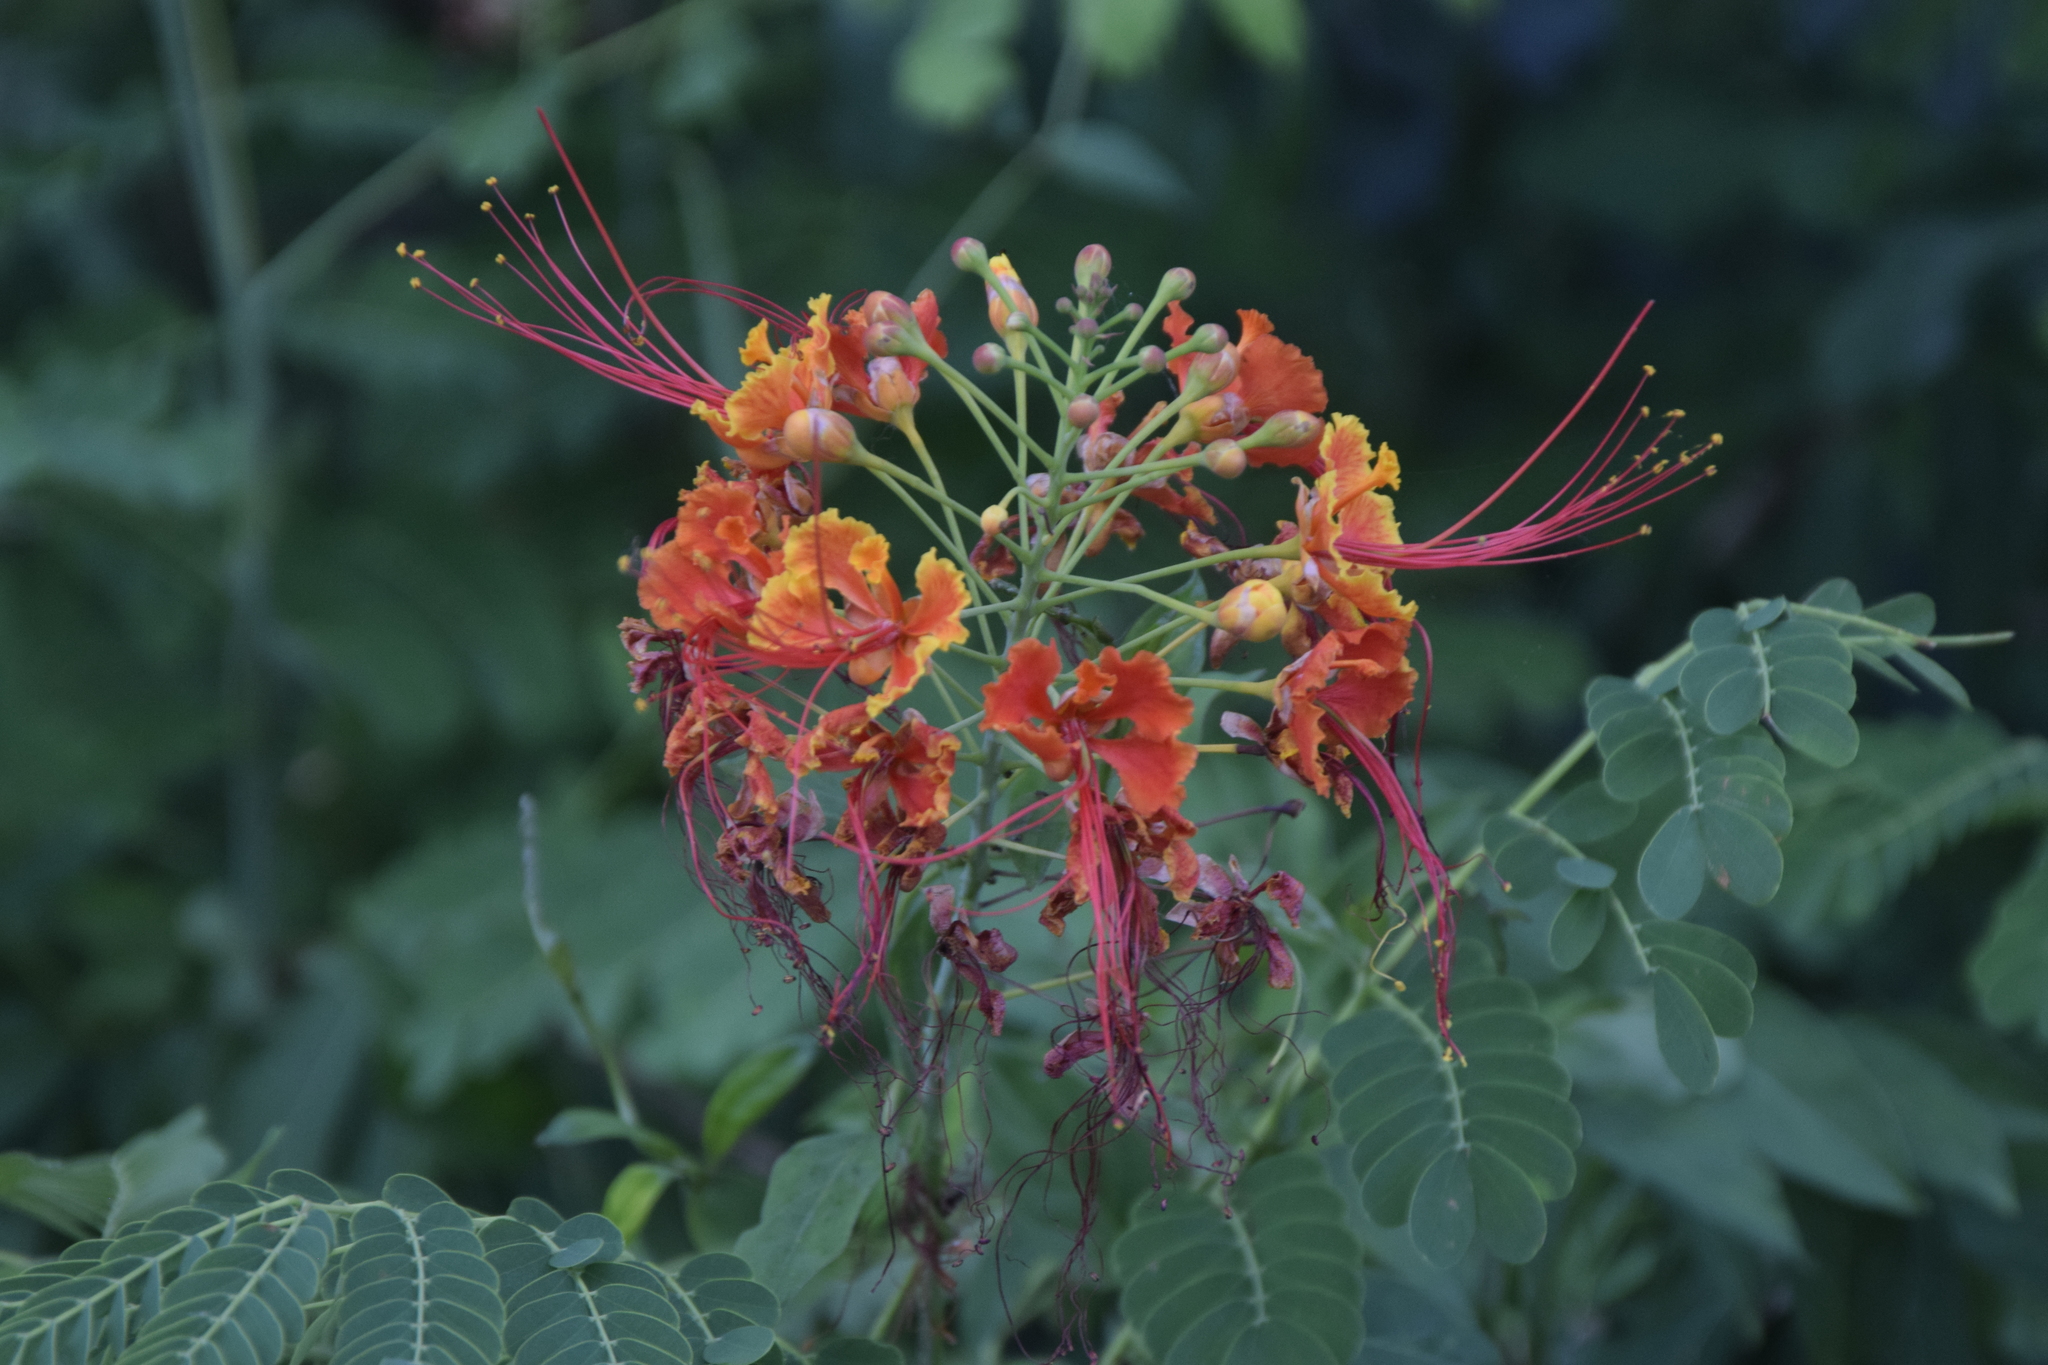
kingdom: Plantae
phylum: Tracheophyta
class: Magnoliopsida
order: Fabales
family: Fabaceae
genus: Caesalpinia
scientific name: Caesalpinia pulcherrima
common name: Pride-of-barbados
